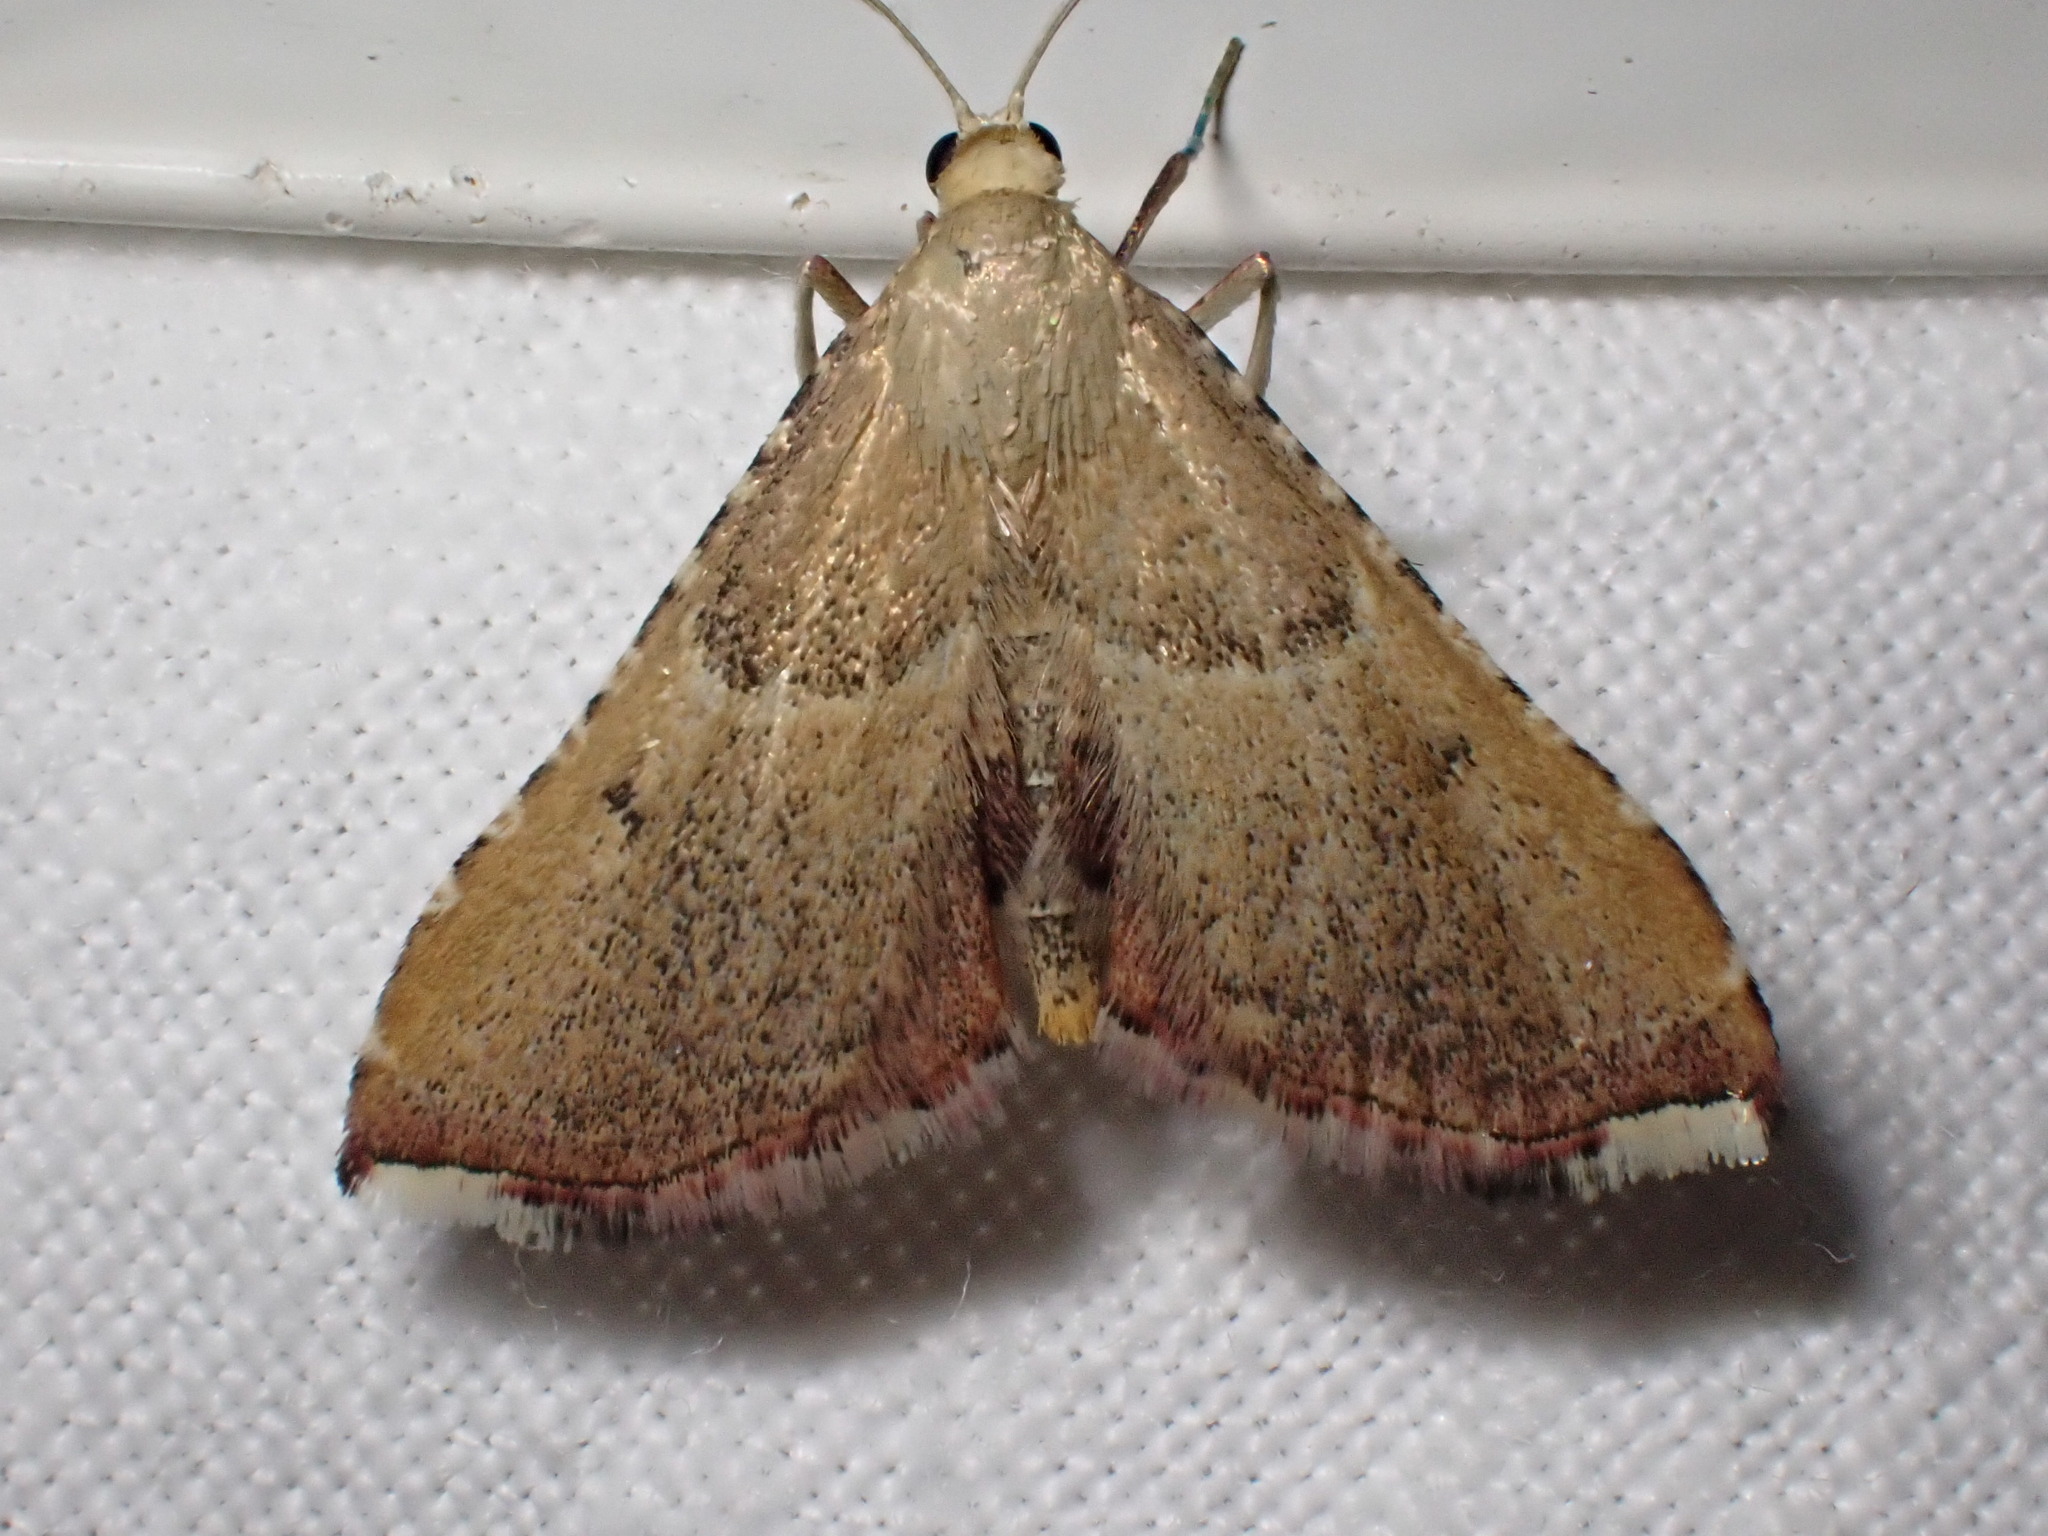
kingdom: Animalia
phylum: Arthropoda
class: Insecta
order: Lepidoptera
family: Pyralidae
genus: Endotricha
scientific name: Endotricha flammealis
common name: Rosy tabby
